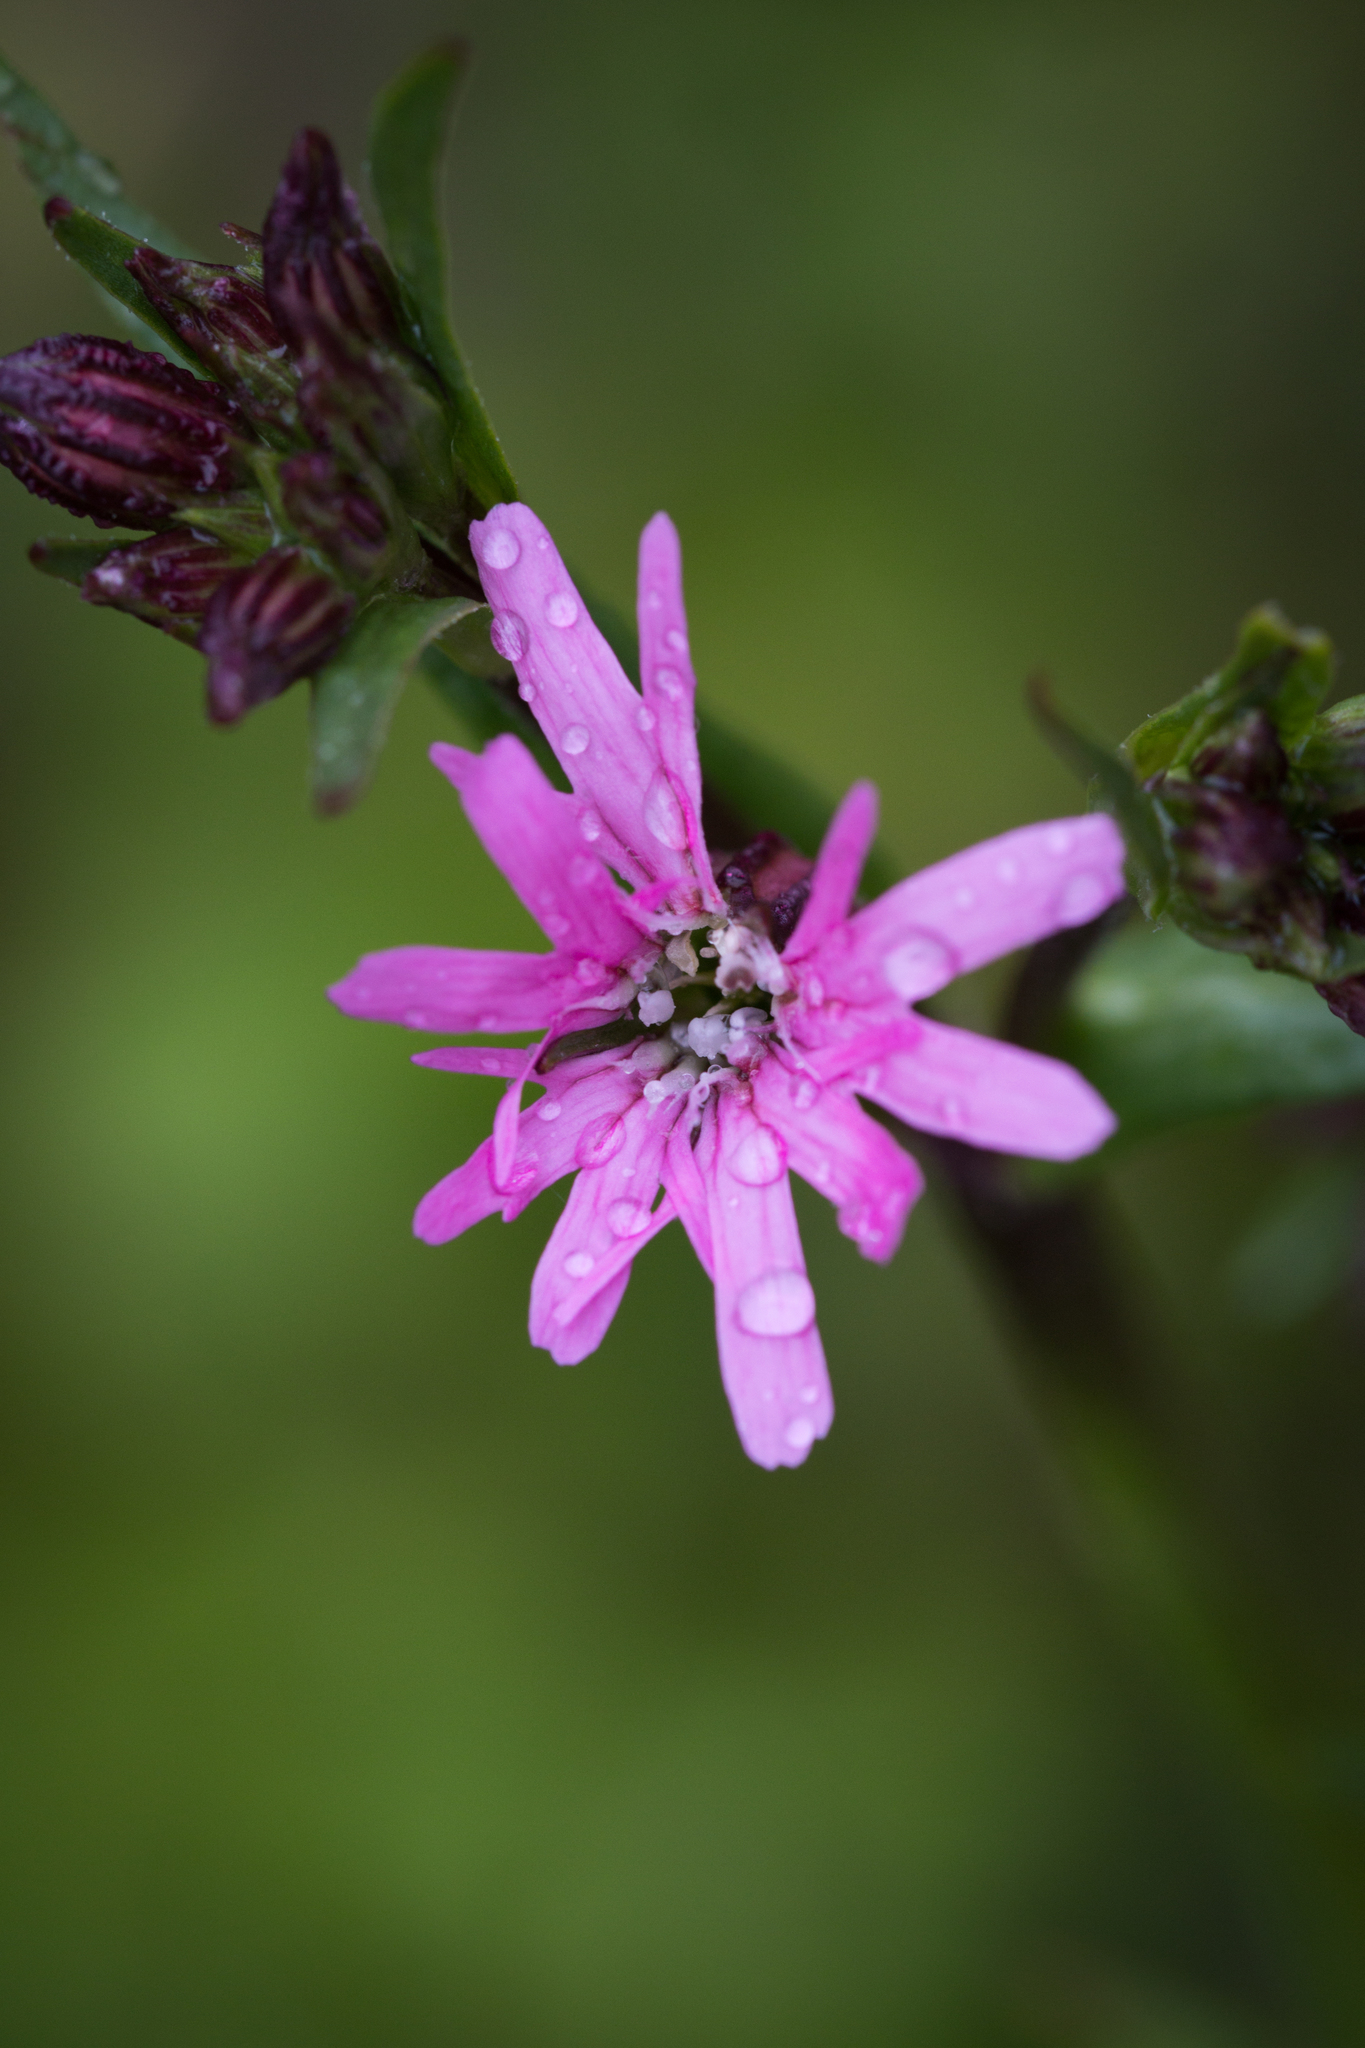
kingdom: Plantae
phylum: Tracheophyta
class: Magnoliopsida
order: Caryophyllales
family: Caryophyllaceae
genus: Silene
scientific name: Silene flos-cuculi
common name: Ragged-robin
